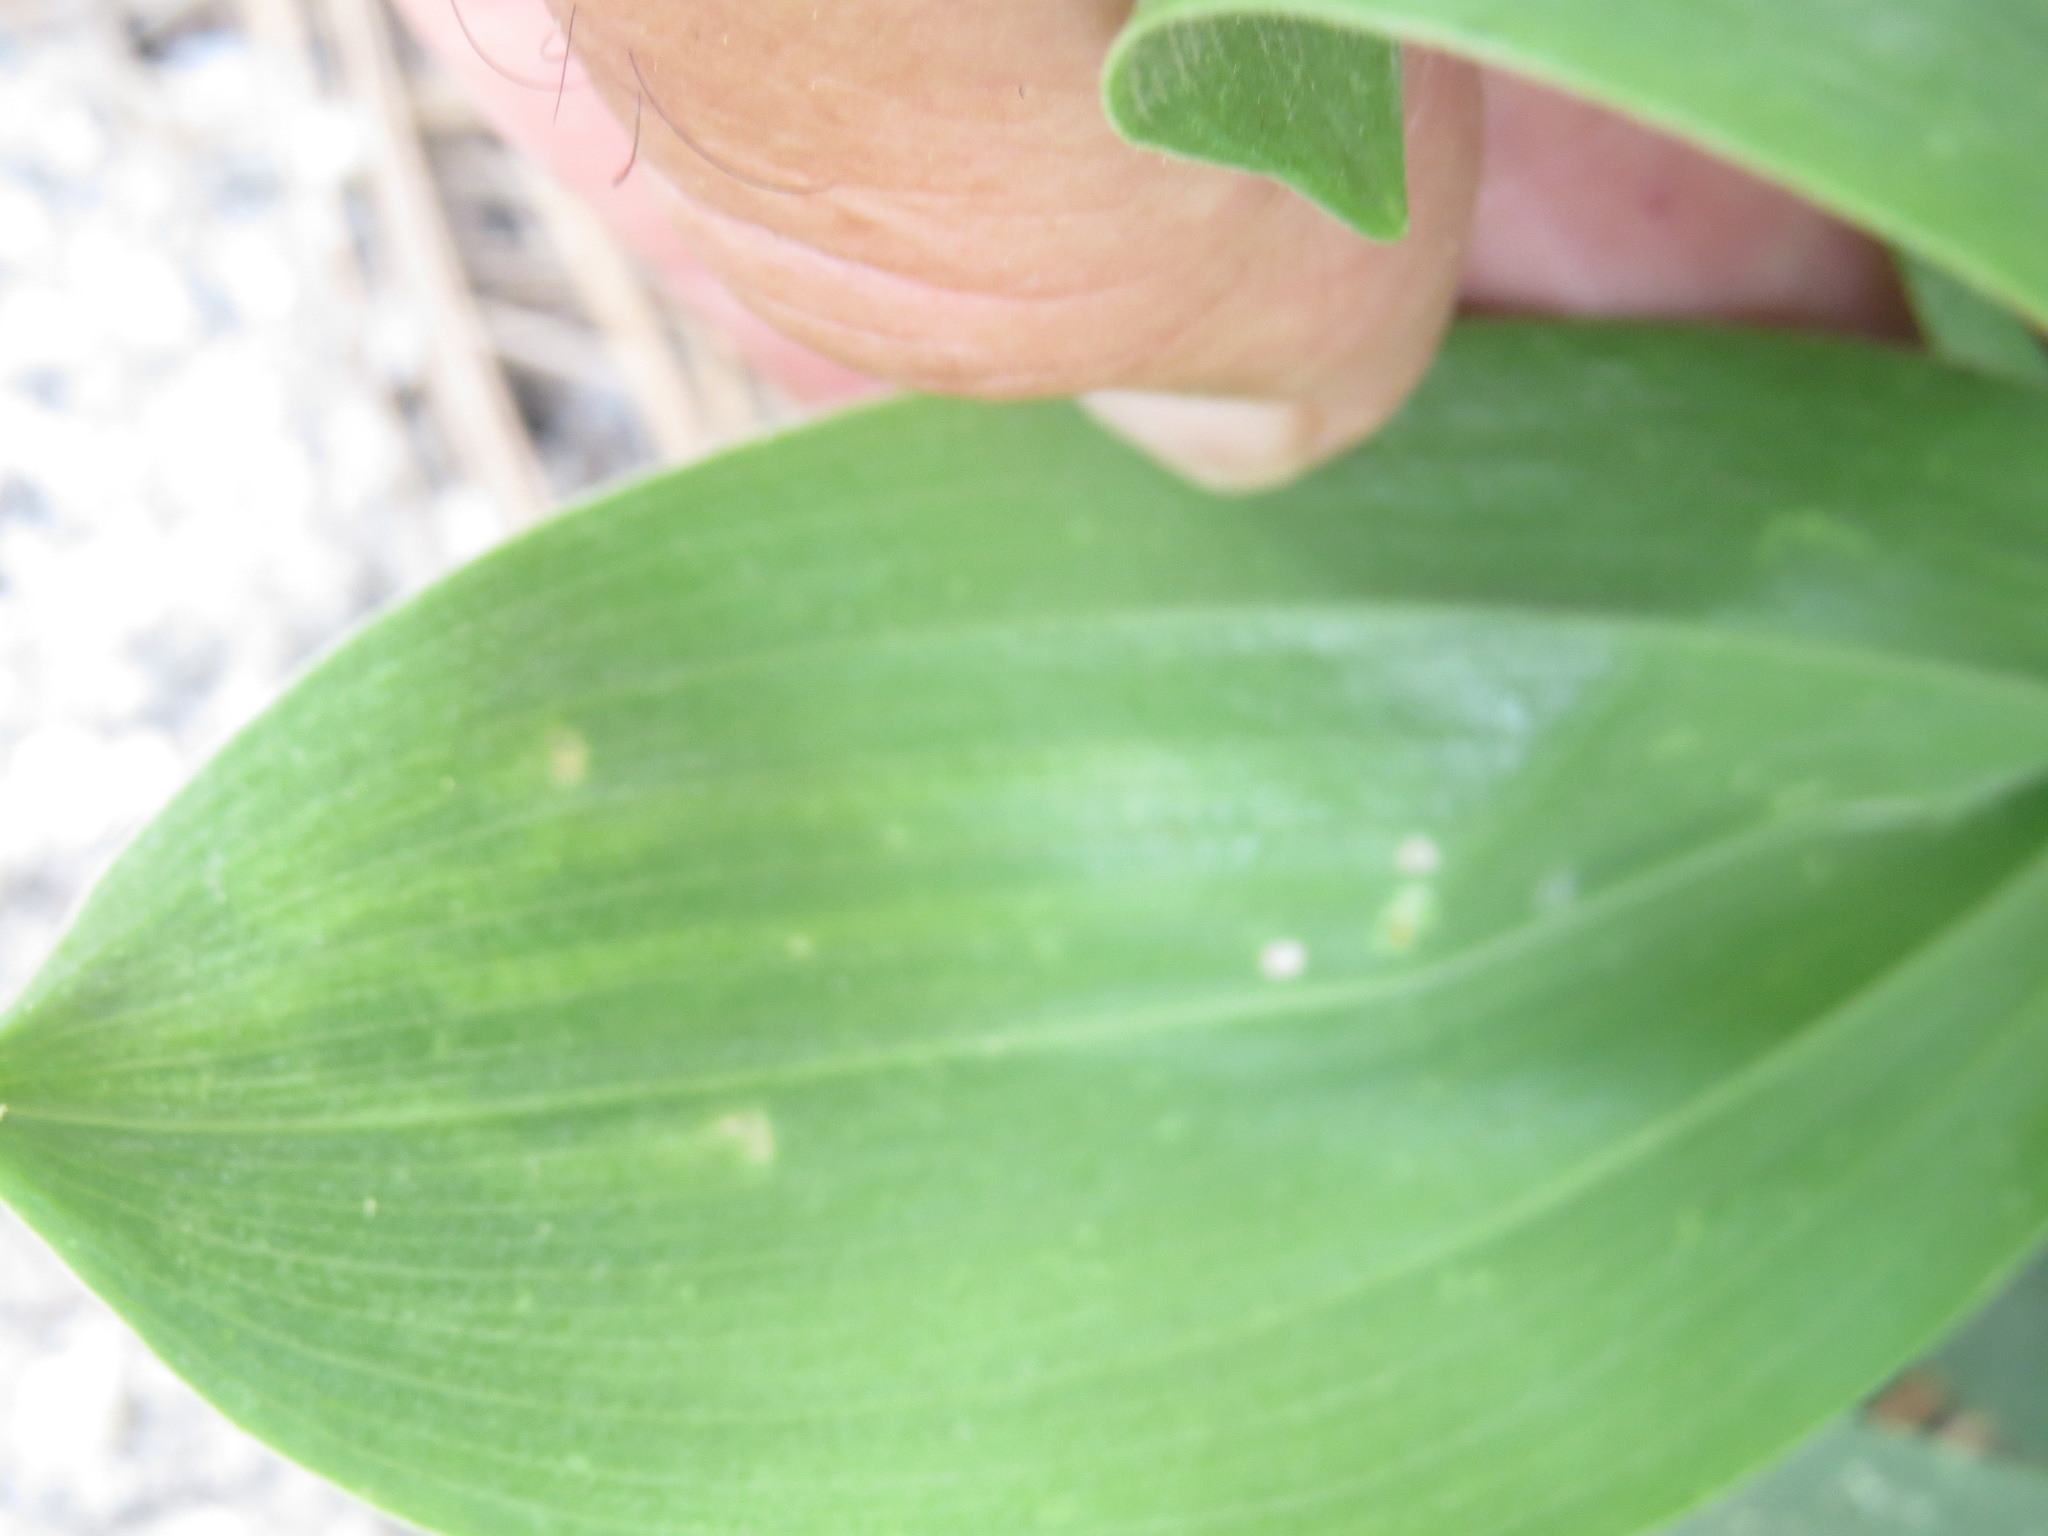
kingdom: Animalia
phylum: Arthropoda
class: Insecta
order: Diptera
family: Agromyzidae
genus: Liriomyza
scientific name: Liriomyza smilacinae
